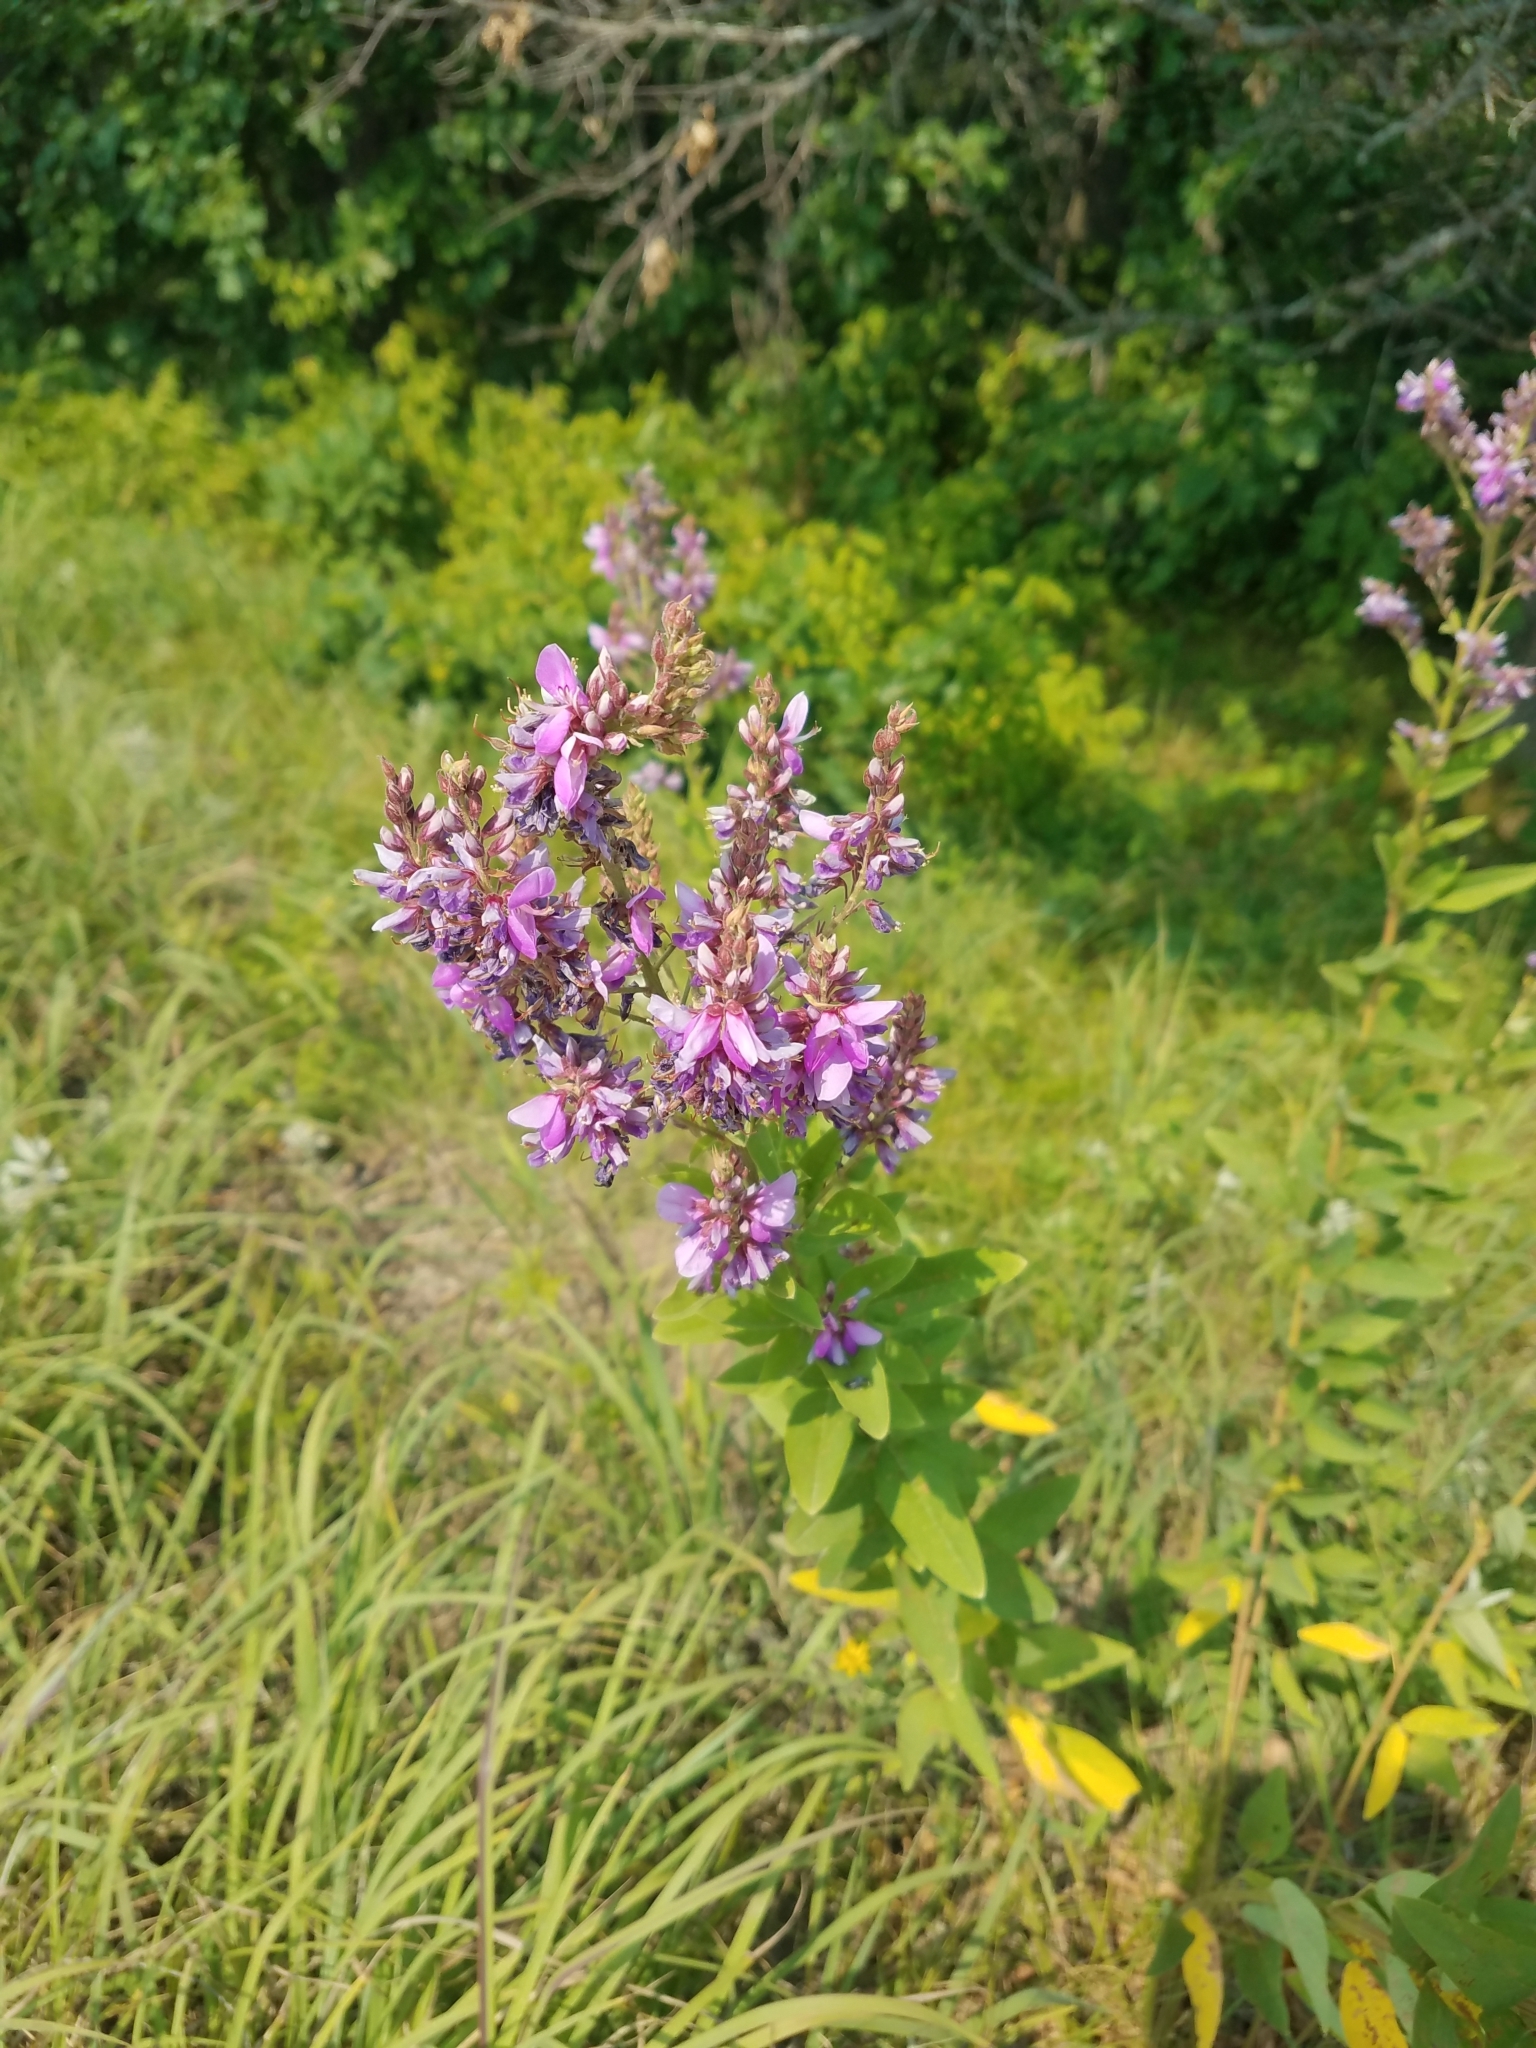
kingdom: Plantae
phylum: Tracheophyta
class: Magnoliopsida
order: Fabales
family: Fabaceae
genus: Desmodium
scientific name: Desmodium canadense
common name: Canada tick-trefoil
